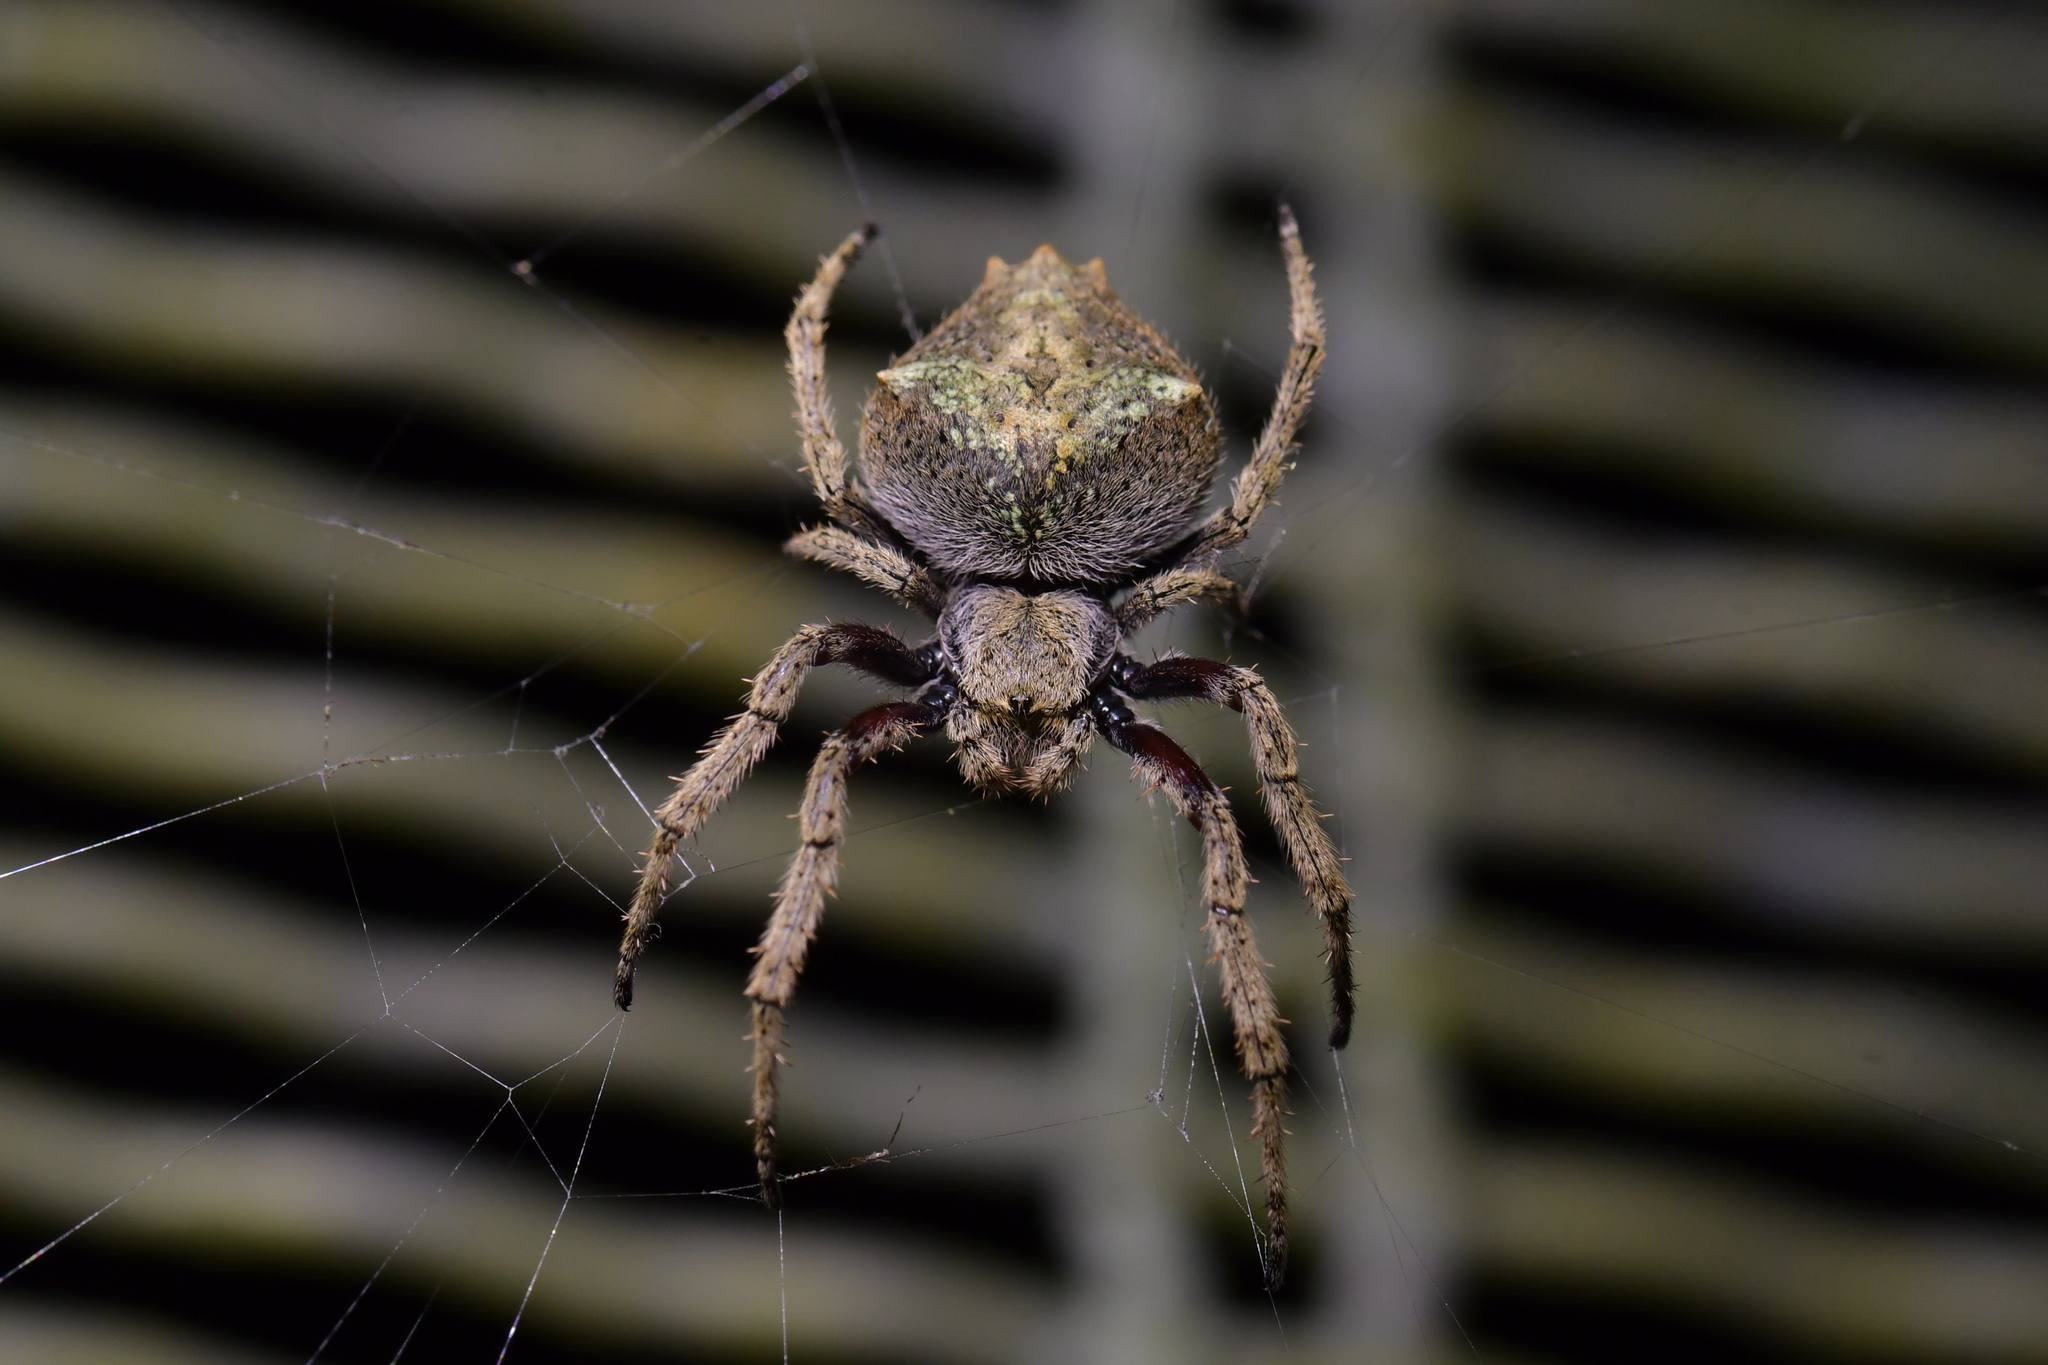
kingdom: Animalia
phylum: Arthropoda
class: Arachnida
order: Araneae
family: Araneidae
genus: Eriophora
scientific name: Eriophora pustulosa
